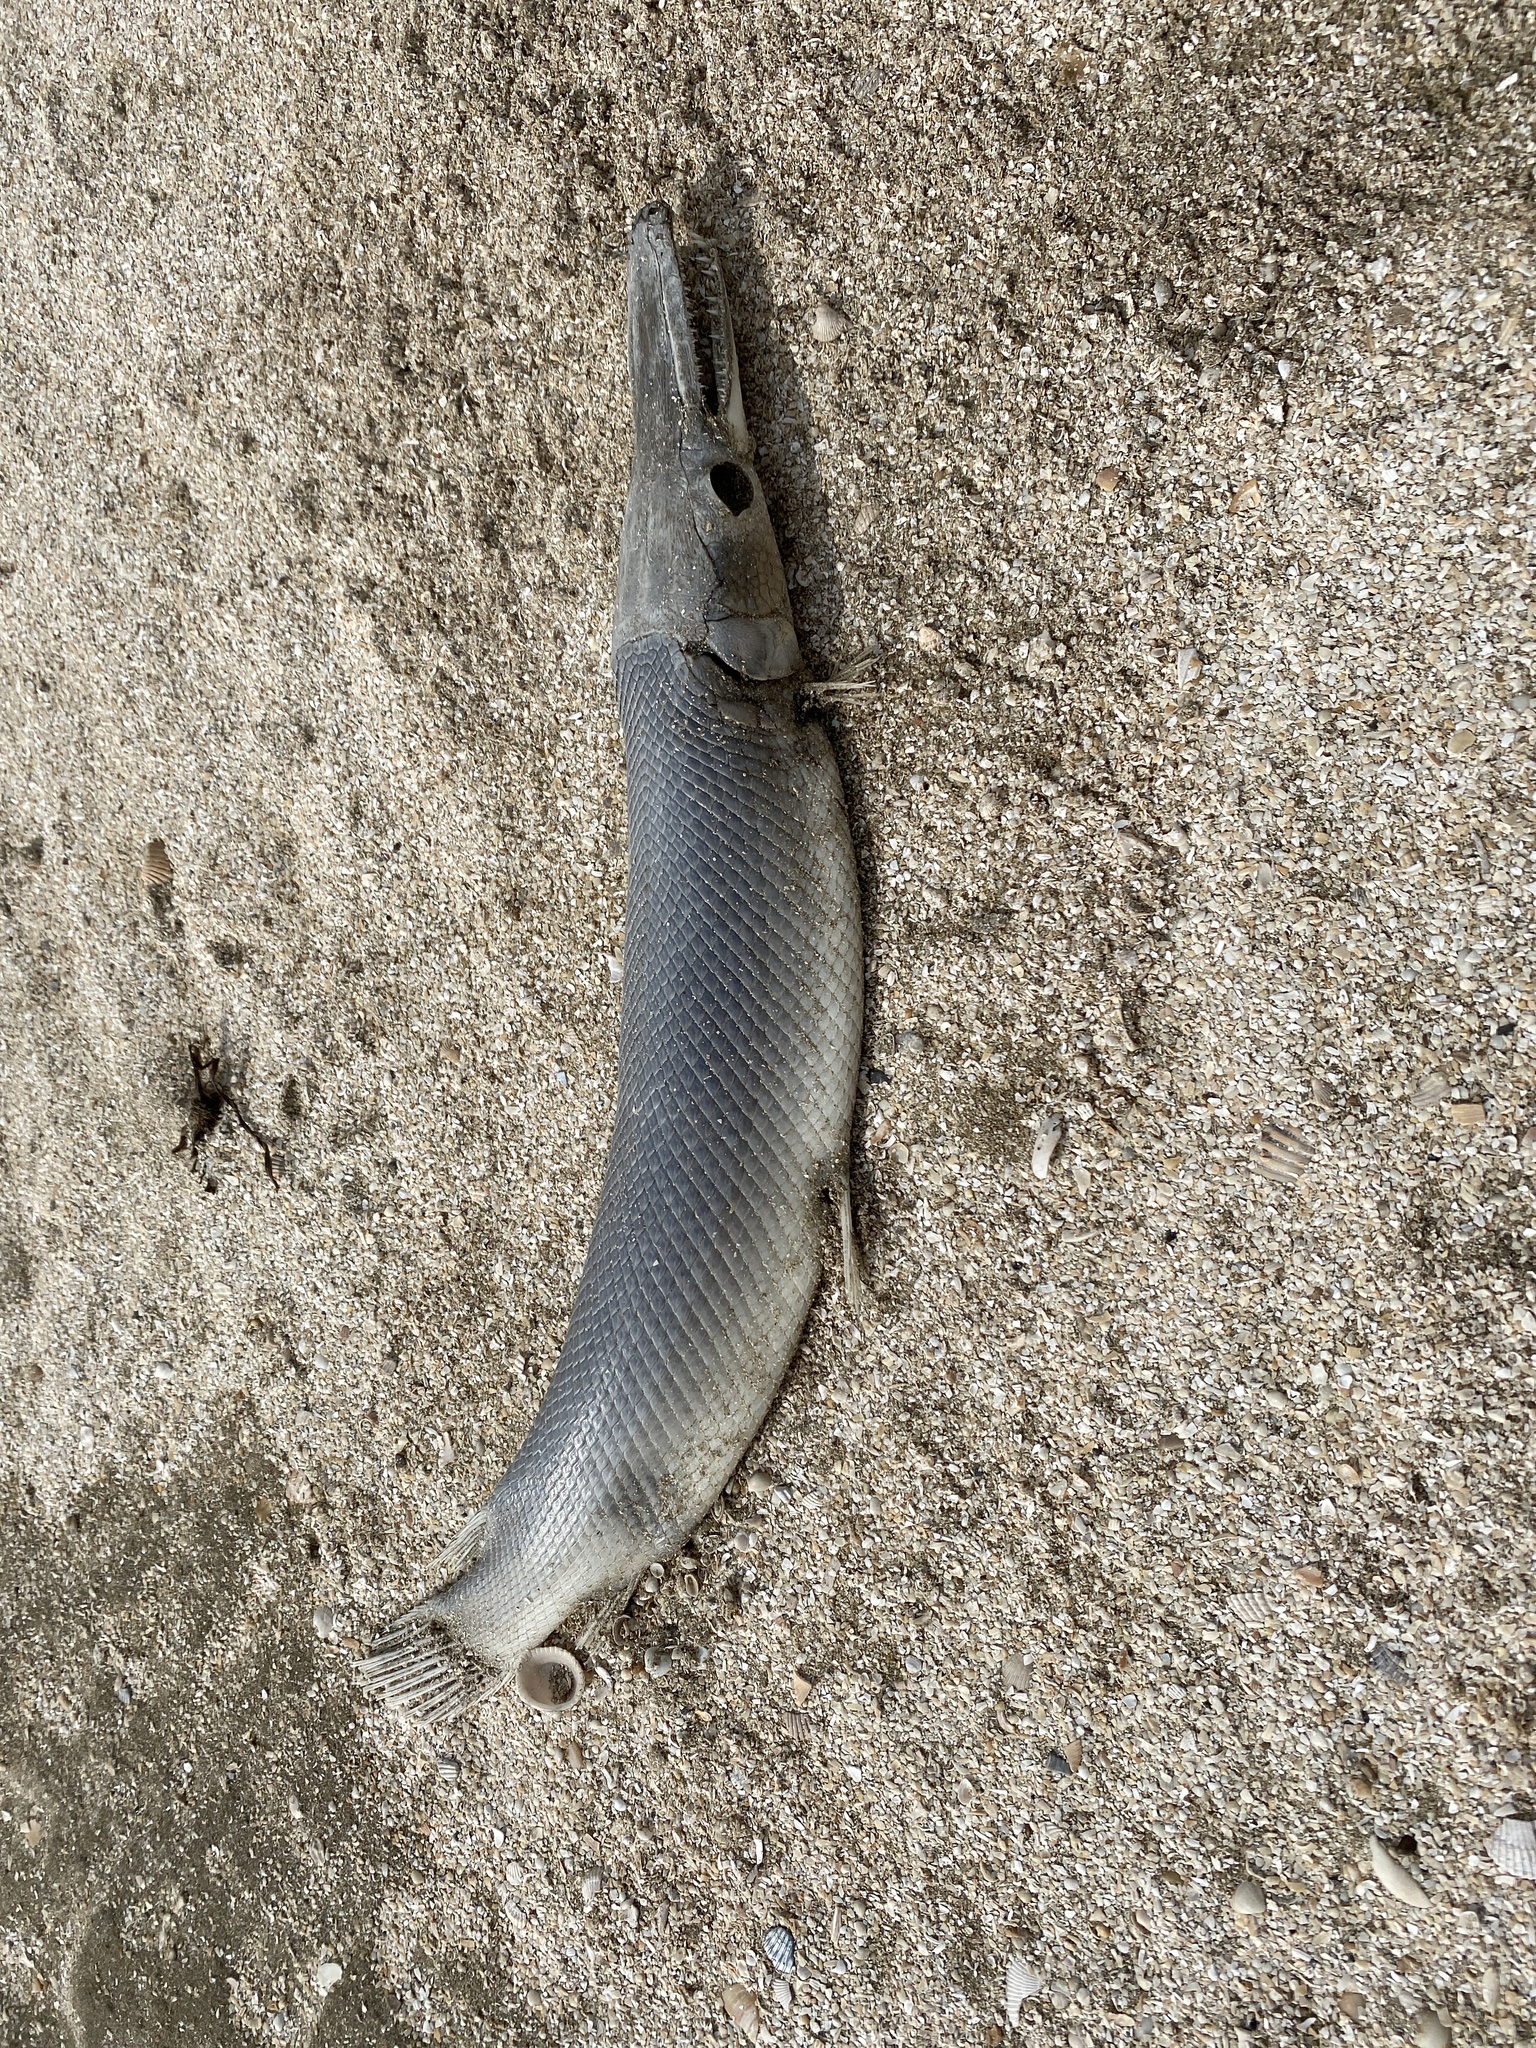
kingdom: Animalia
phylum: Chordata
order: Lepisosteiformes
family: Lepisosteidae
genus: Atractosteus
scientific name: Atractosteus spatula
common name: Alligator gar
